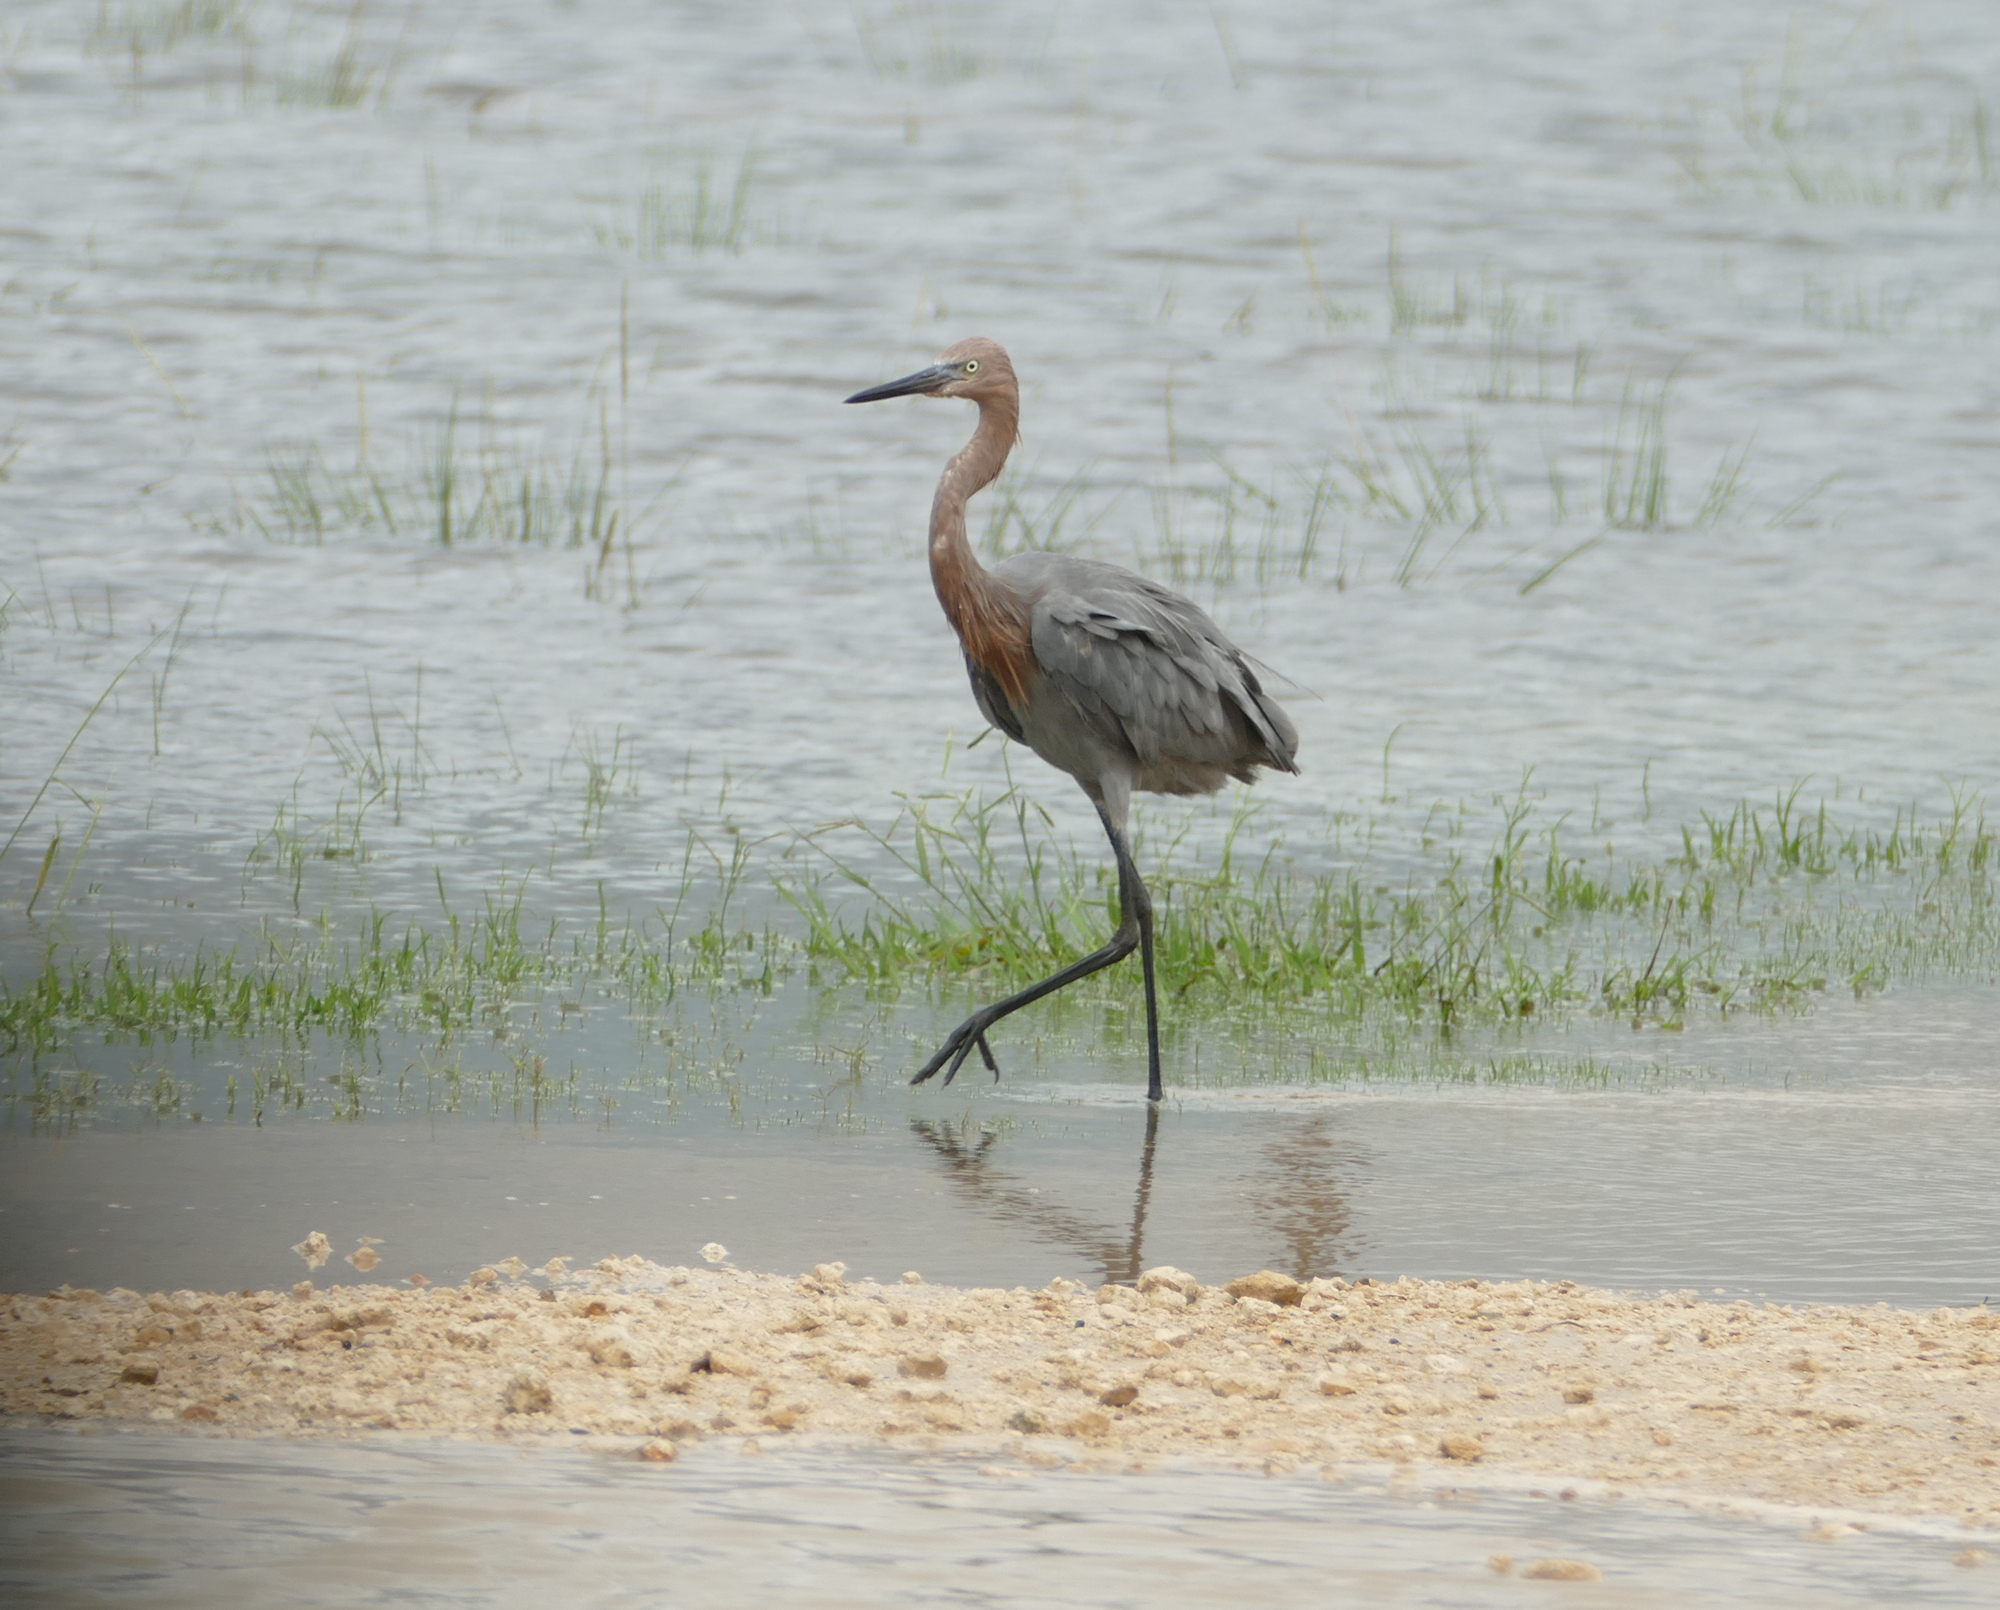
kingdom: Animalia
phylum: Chordata
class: Aves
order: Pelecaniformes
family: Ardeidae
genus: Egretta
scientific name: Egretta rufescens
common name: Reddish egret
